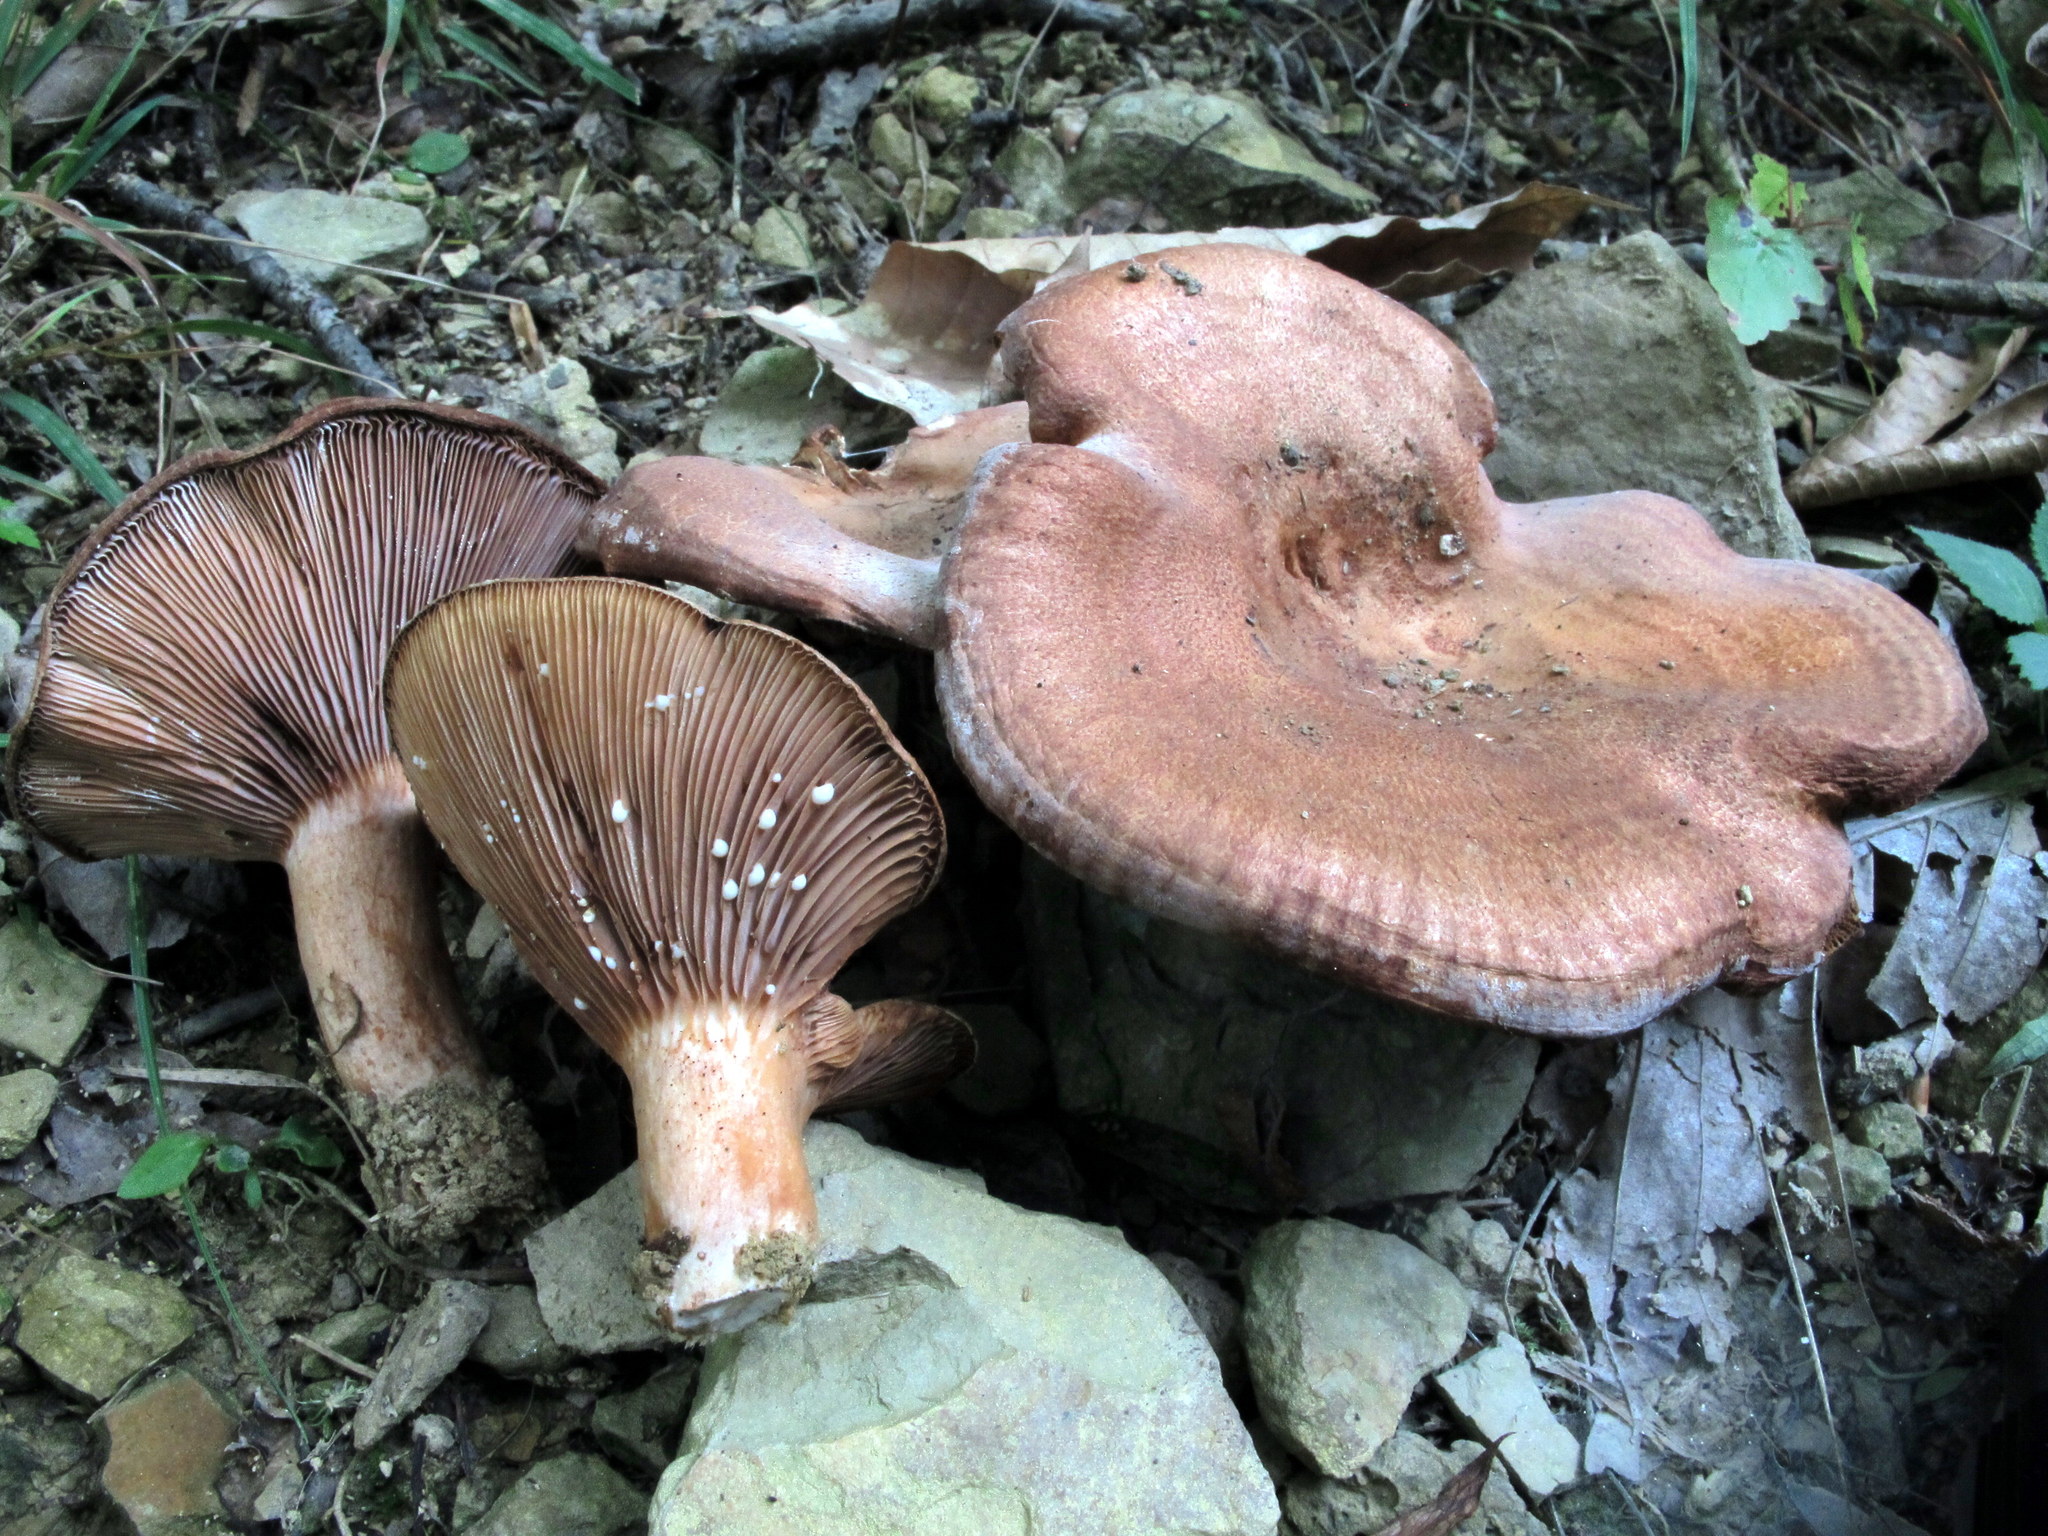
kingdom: Fungi
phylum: Basidiomycota
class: Agaricomycetes
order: Russulales
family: Russulaceae
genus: Lactarius
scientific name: Lactarius peckii
